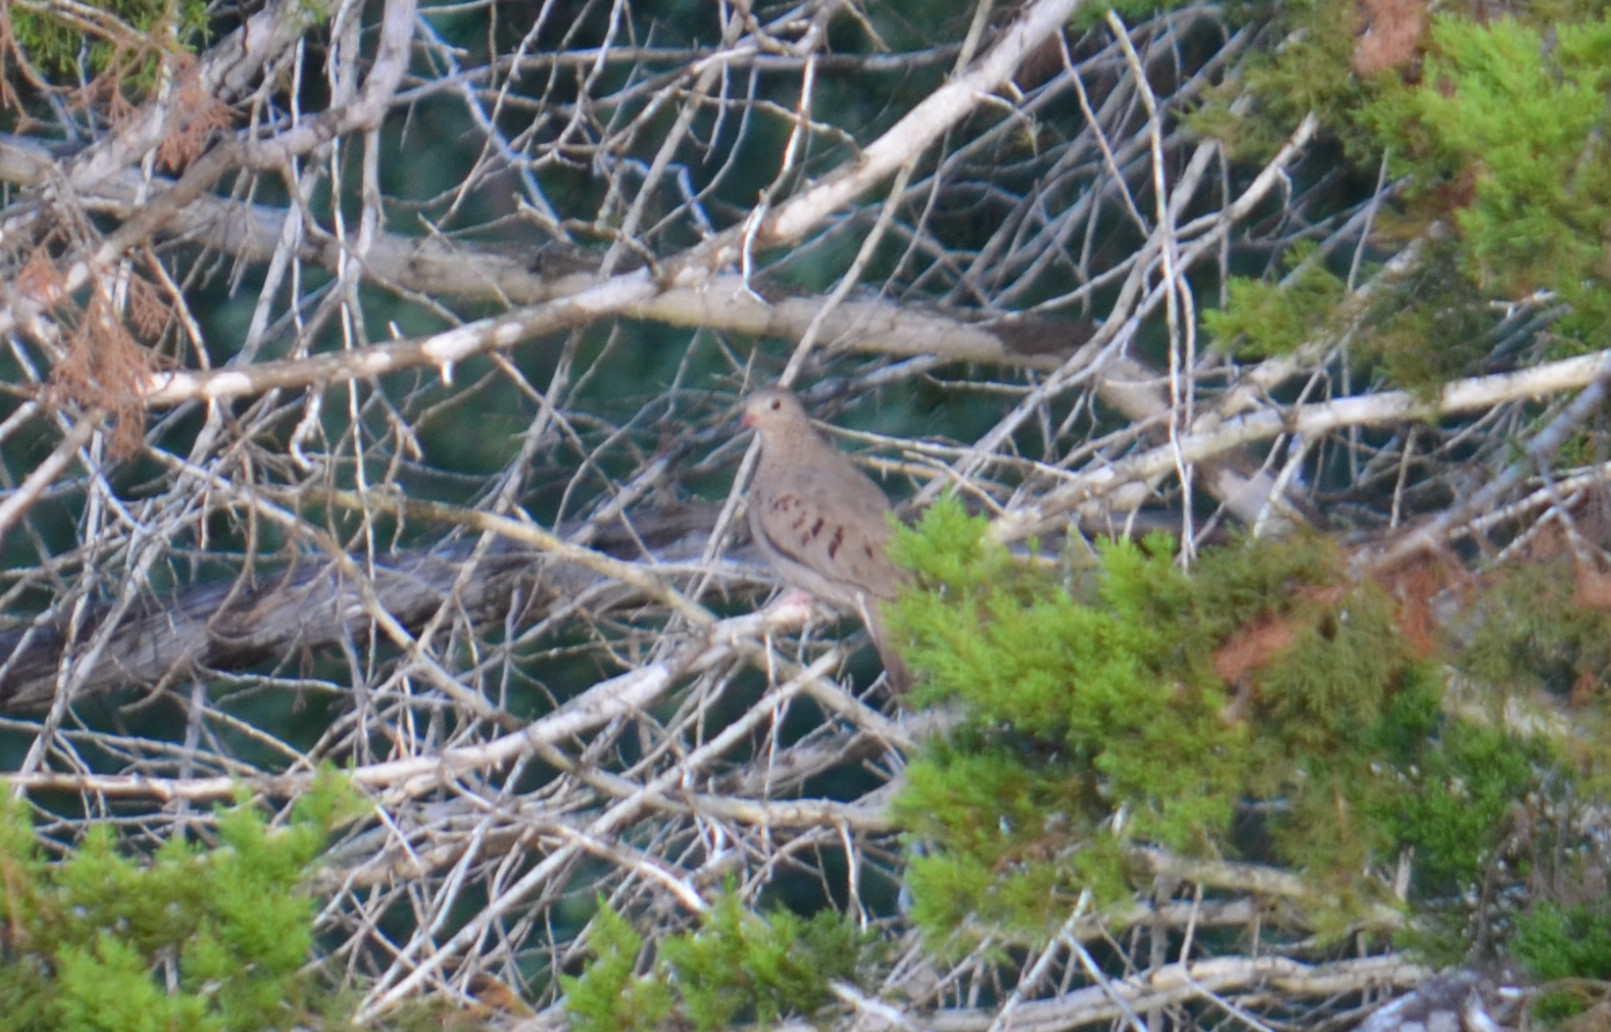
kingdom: Animalia
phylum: Chordata
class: Aves
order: Columbiformes
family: Columbidae
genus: Columbina
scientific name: Columbina passerina
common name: Common ground-dove
